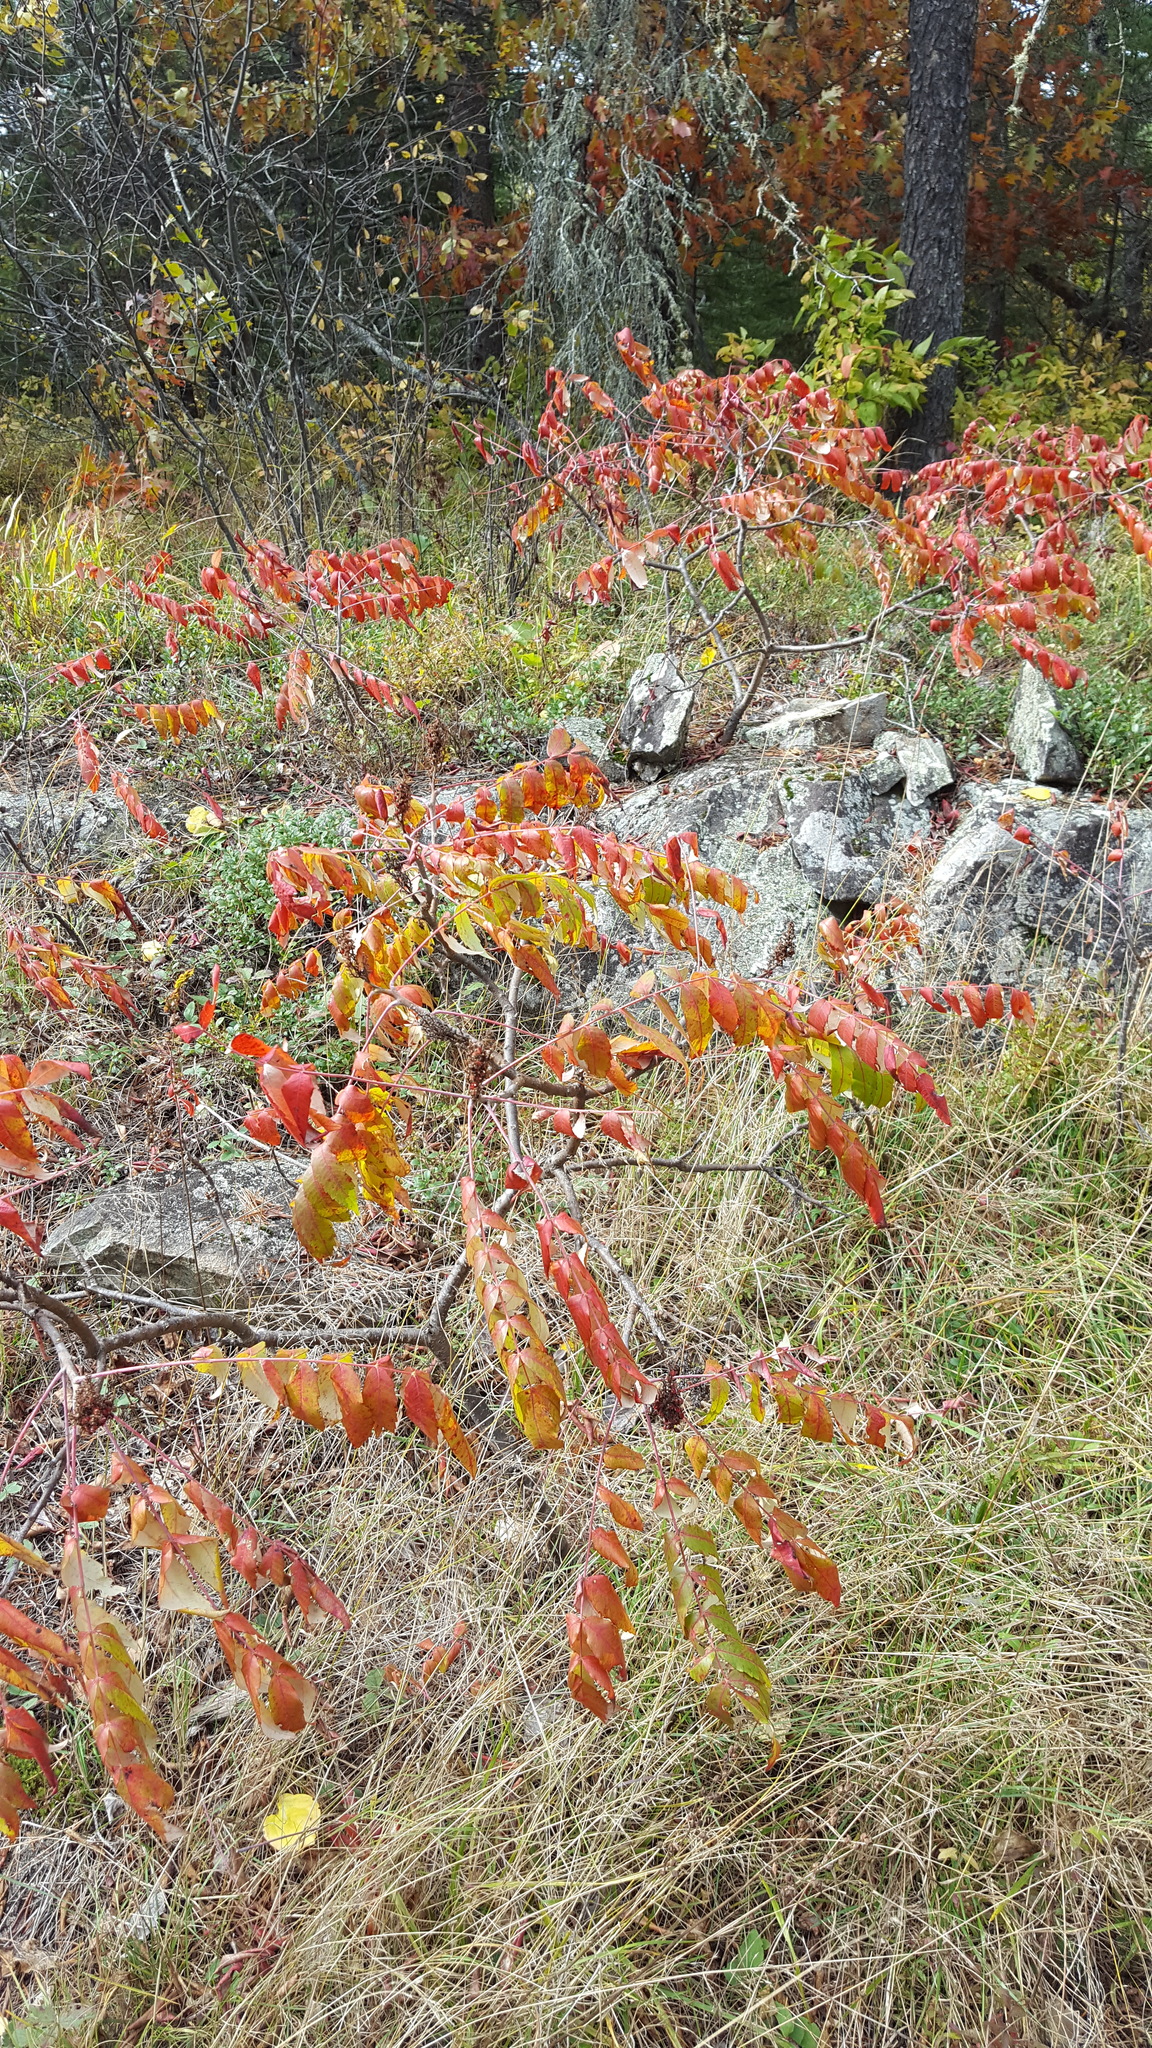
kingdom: Plantae
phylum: Tracheophyta
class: Magnoliopsida
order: Sapindales
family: Anacardiaceae
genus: Rhus
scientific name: Rhus glabra
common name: Scarlet sumac
